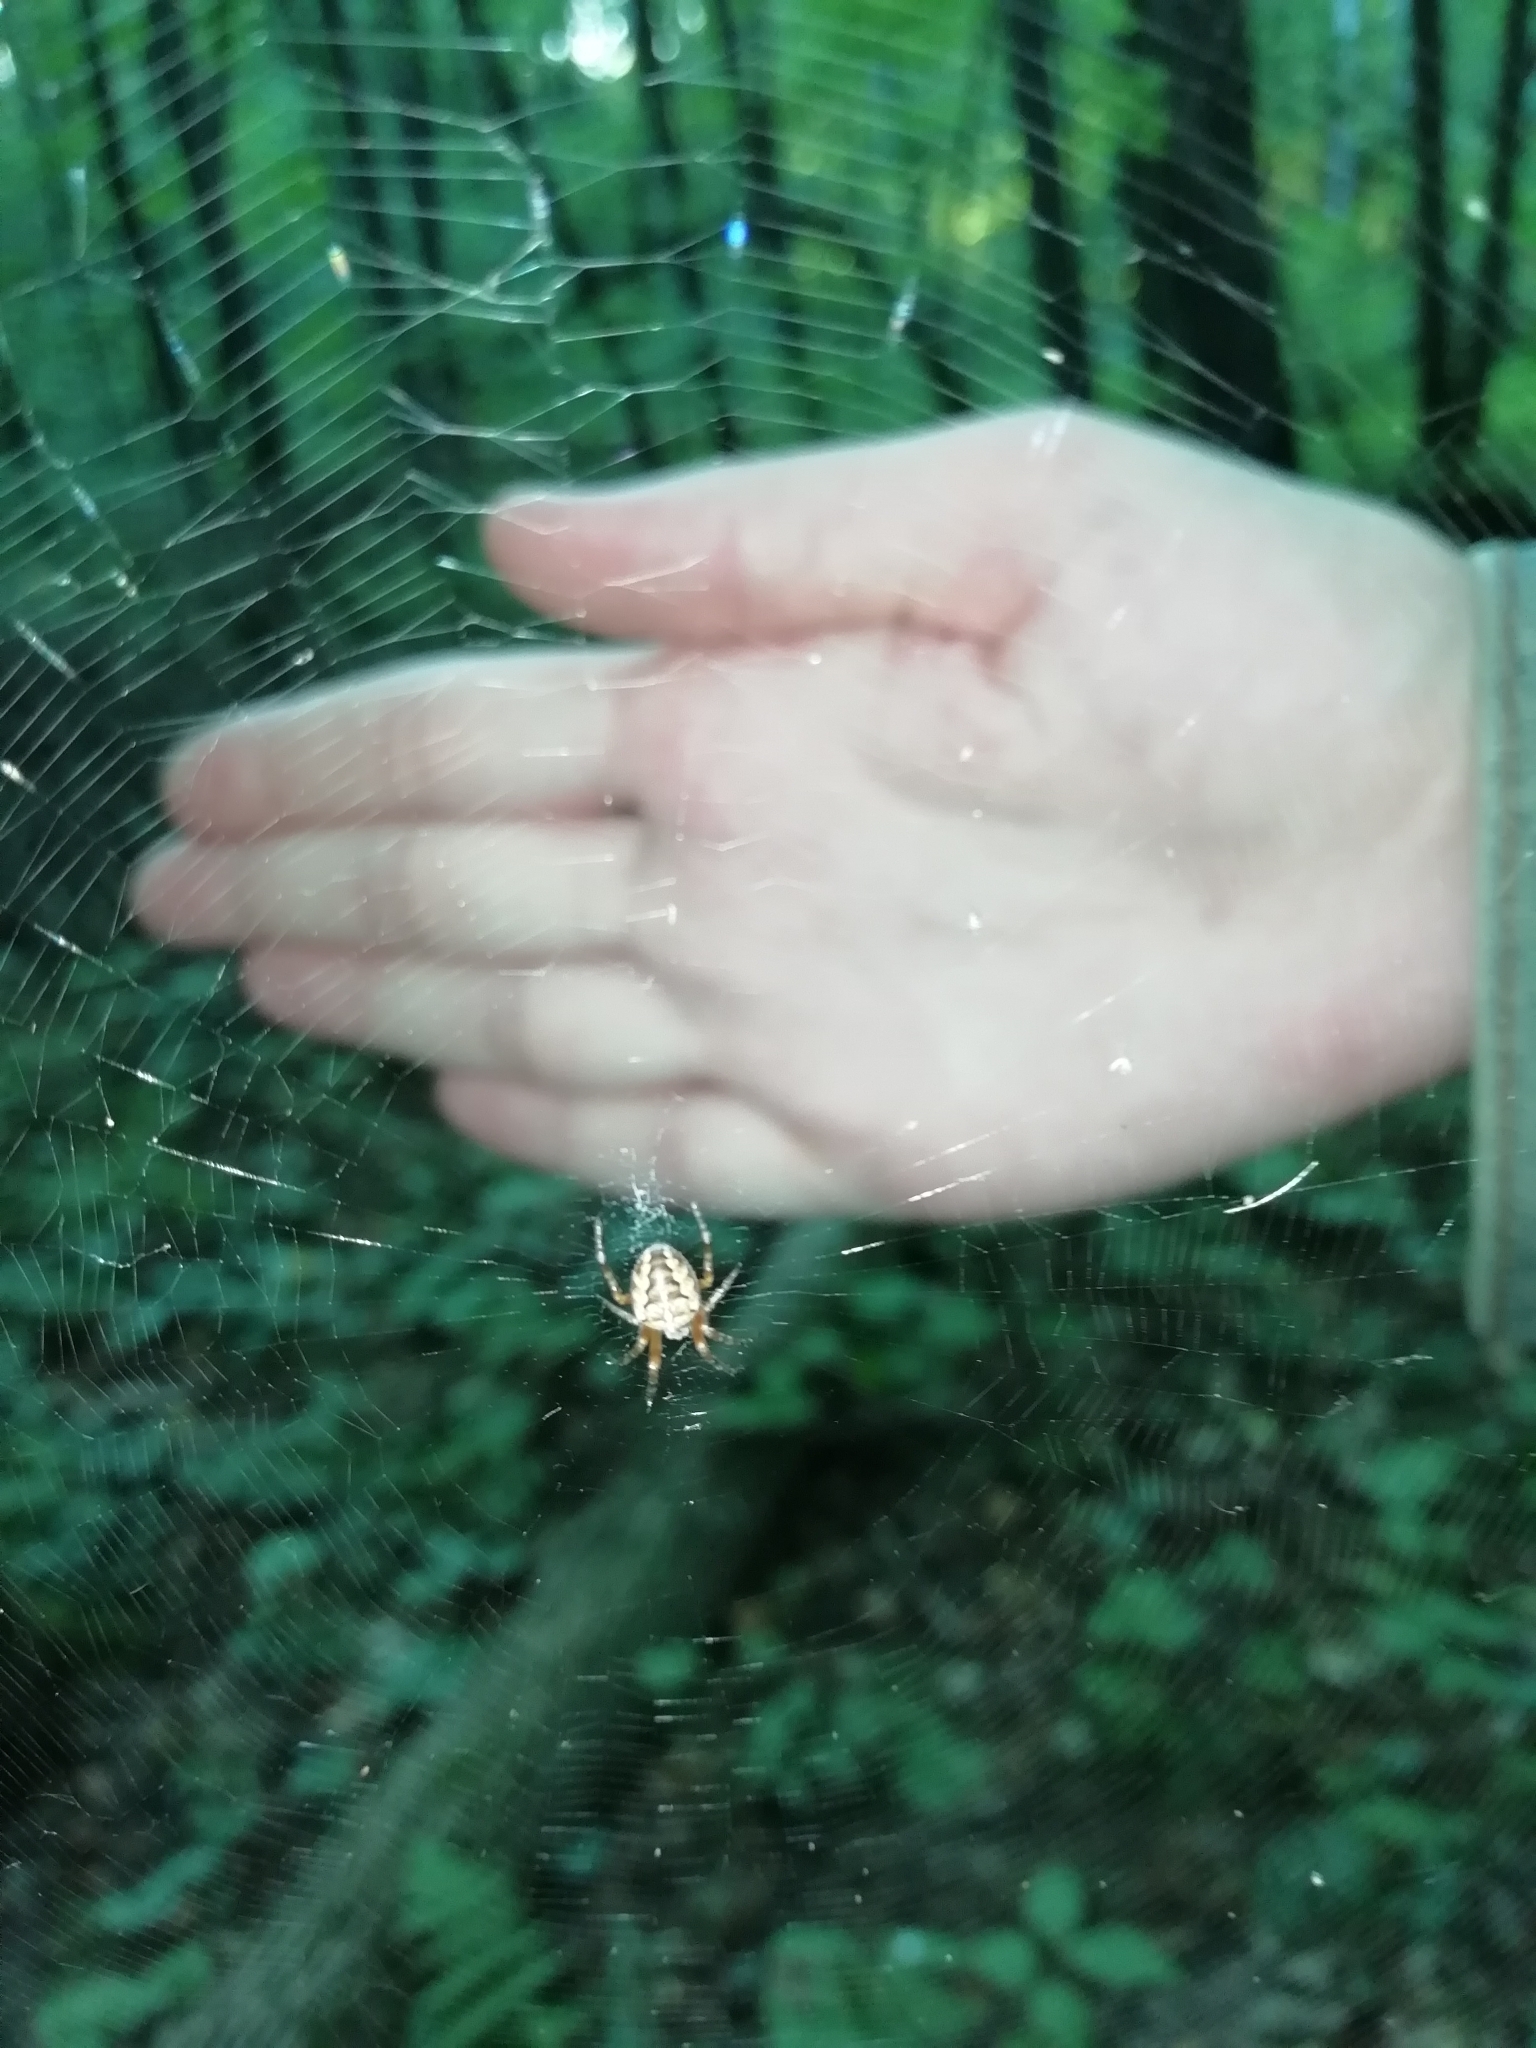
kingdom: Animalia
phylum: Arthropoda
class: Arachnida
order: Araneae
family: Araneidae
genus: Araneus
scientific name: Araneus diadematus
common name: Cross orbweaver
